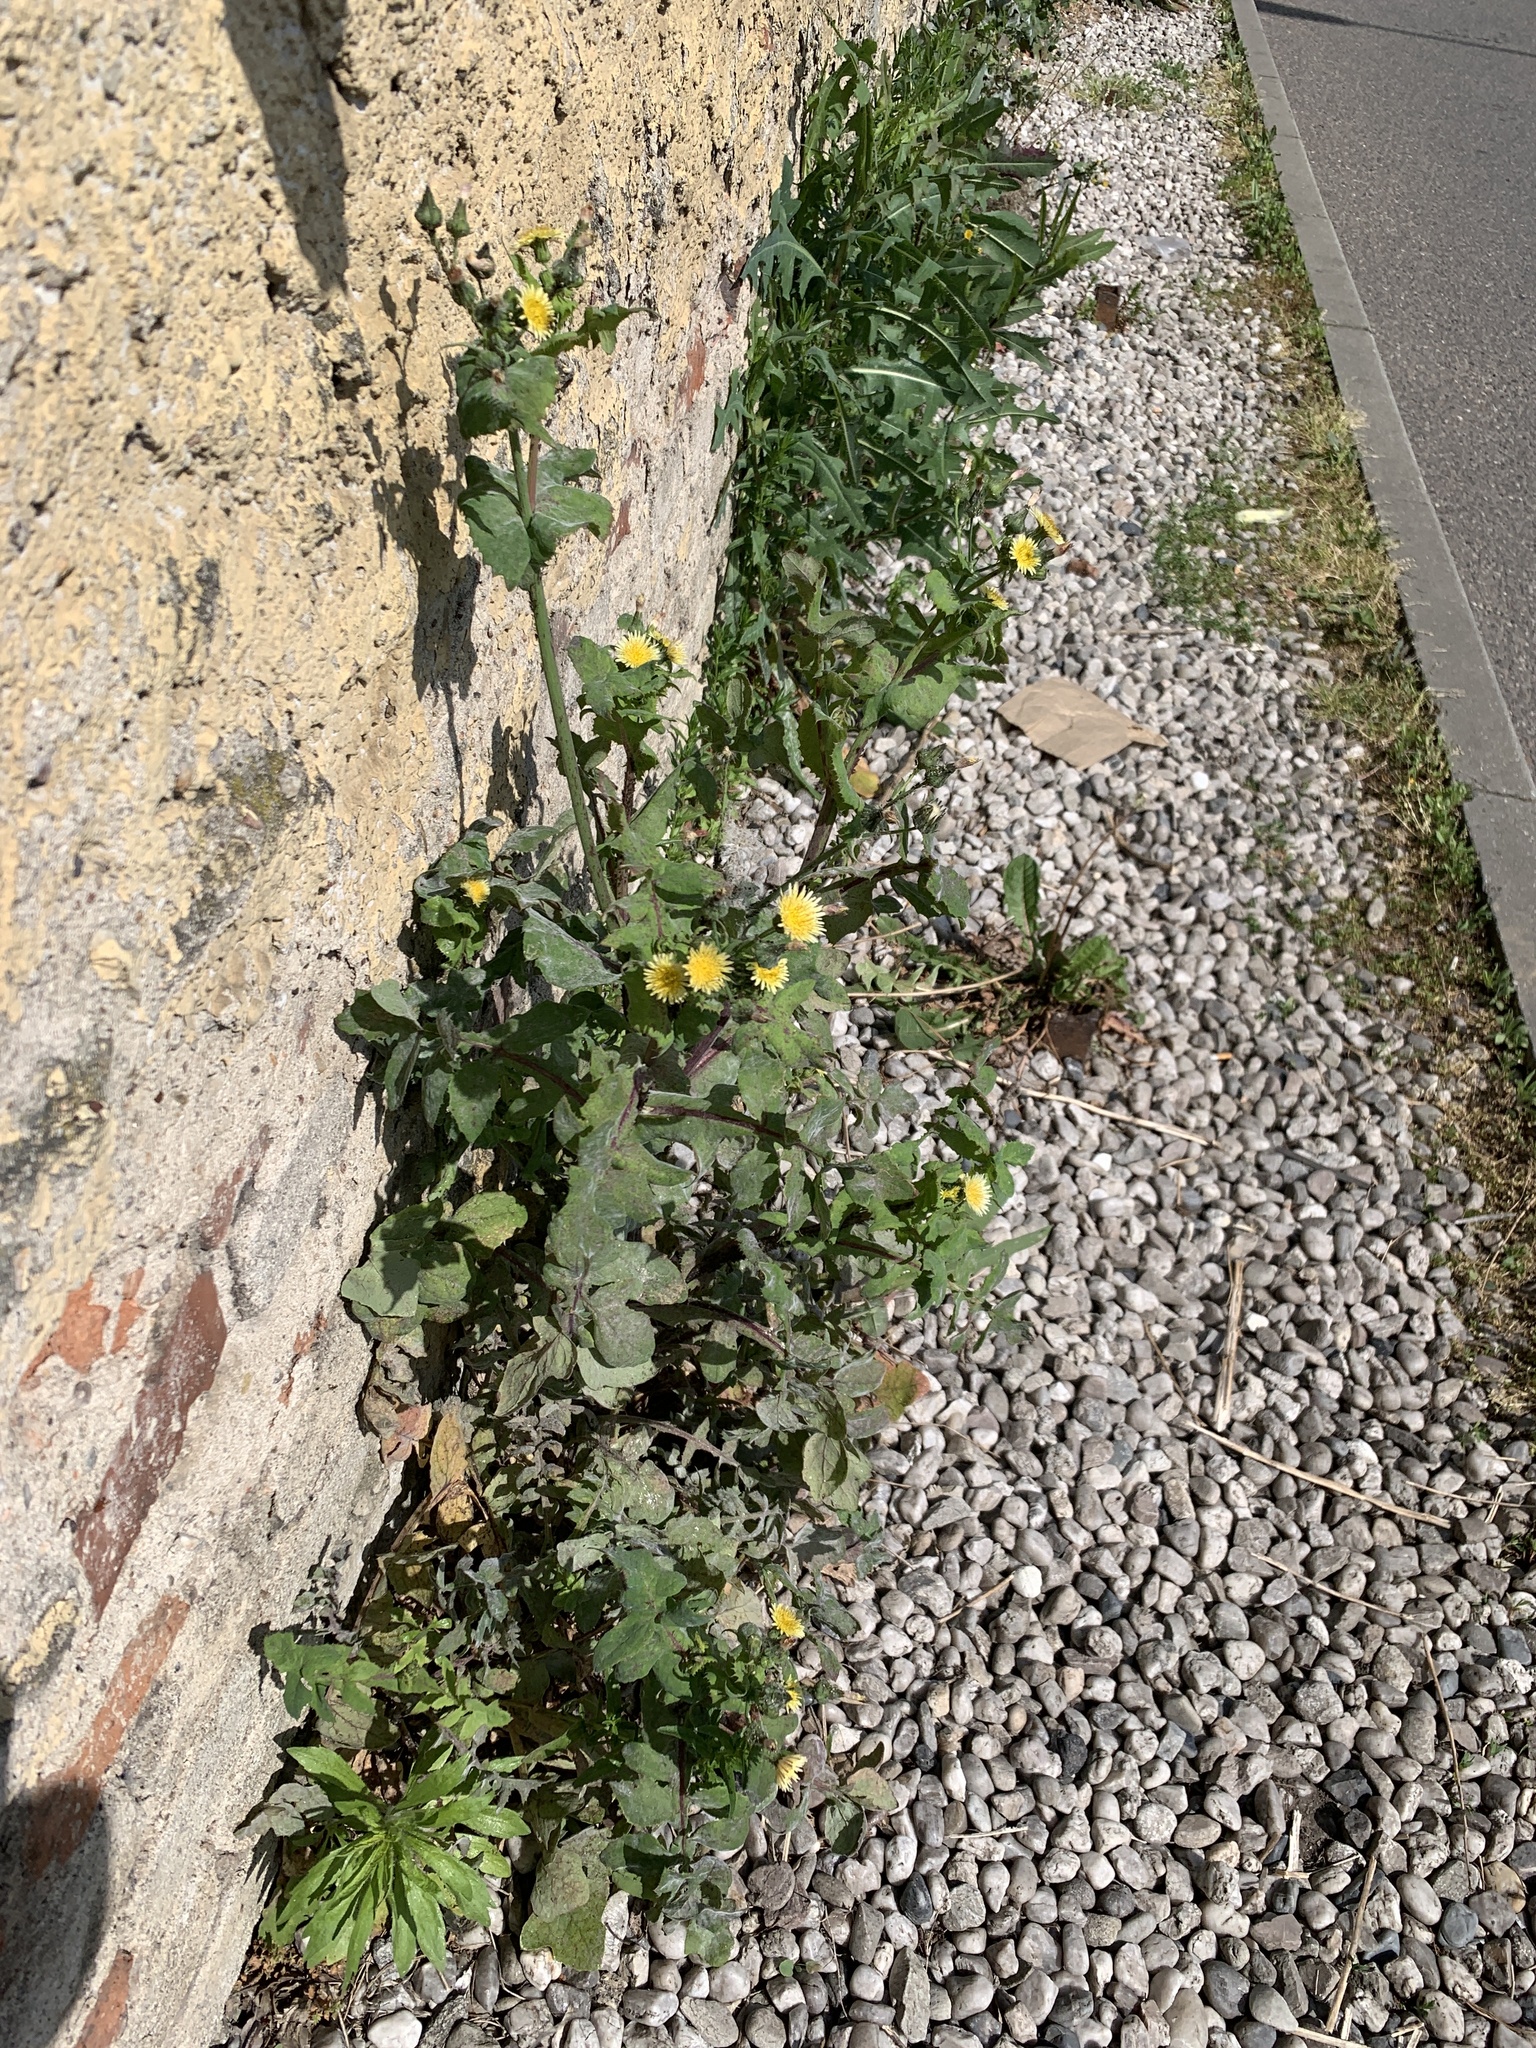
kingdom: Plantae
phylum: Tracheophyta
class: Magnoliopsida
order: Asterales
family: Asteraceae
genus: Sonchus
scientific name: Sonchus oleraceus
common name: Common sowthistle
